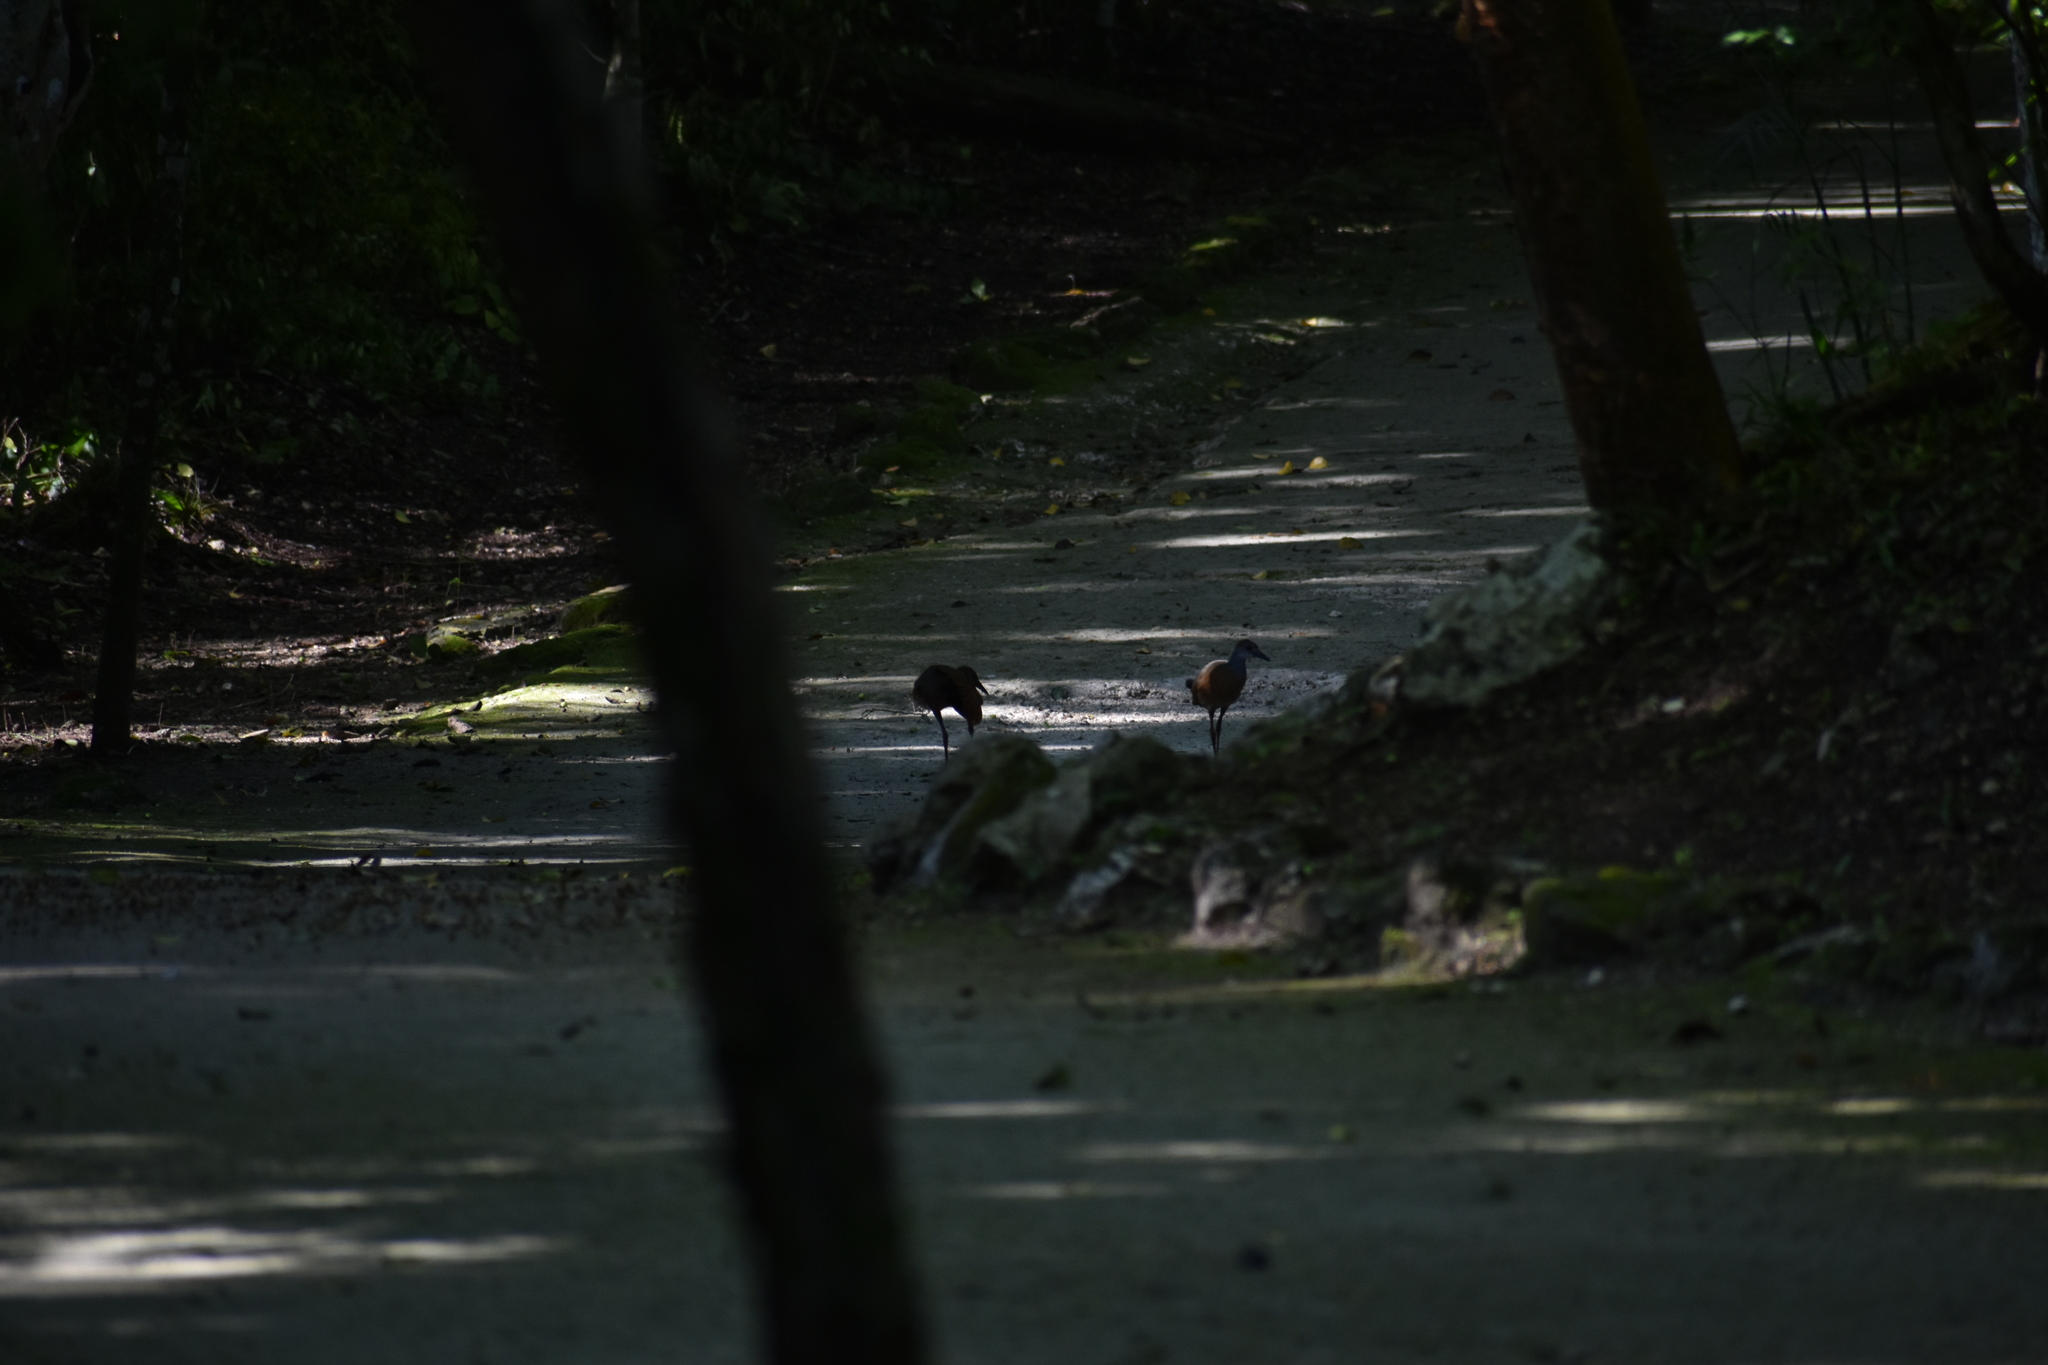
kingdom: Animalia
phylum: Chordata
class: Aves
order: Gruiformes
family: Rallidae
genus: Aramides
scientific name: Aramides albiventris
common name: Russet-naped wood-rail
